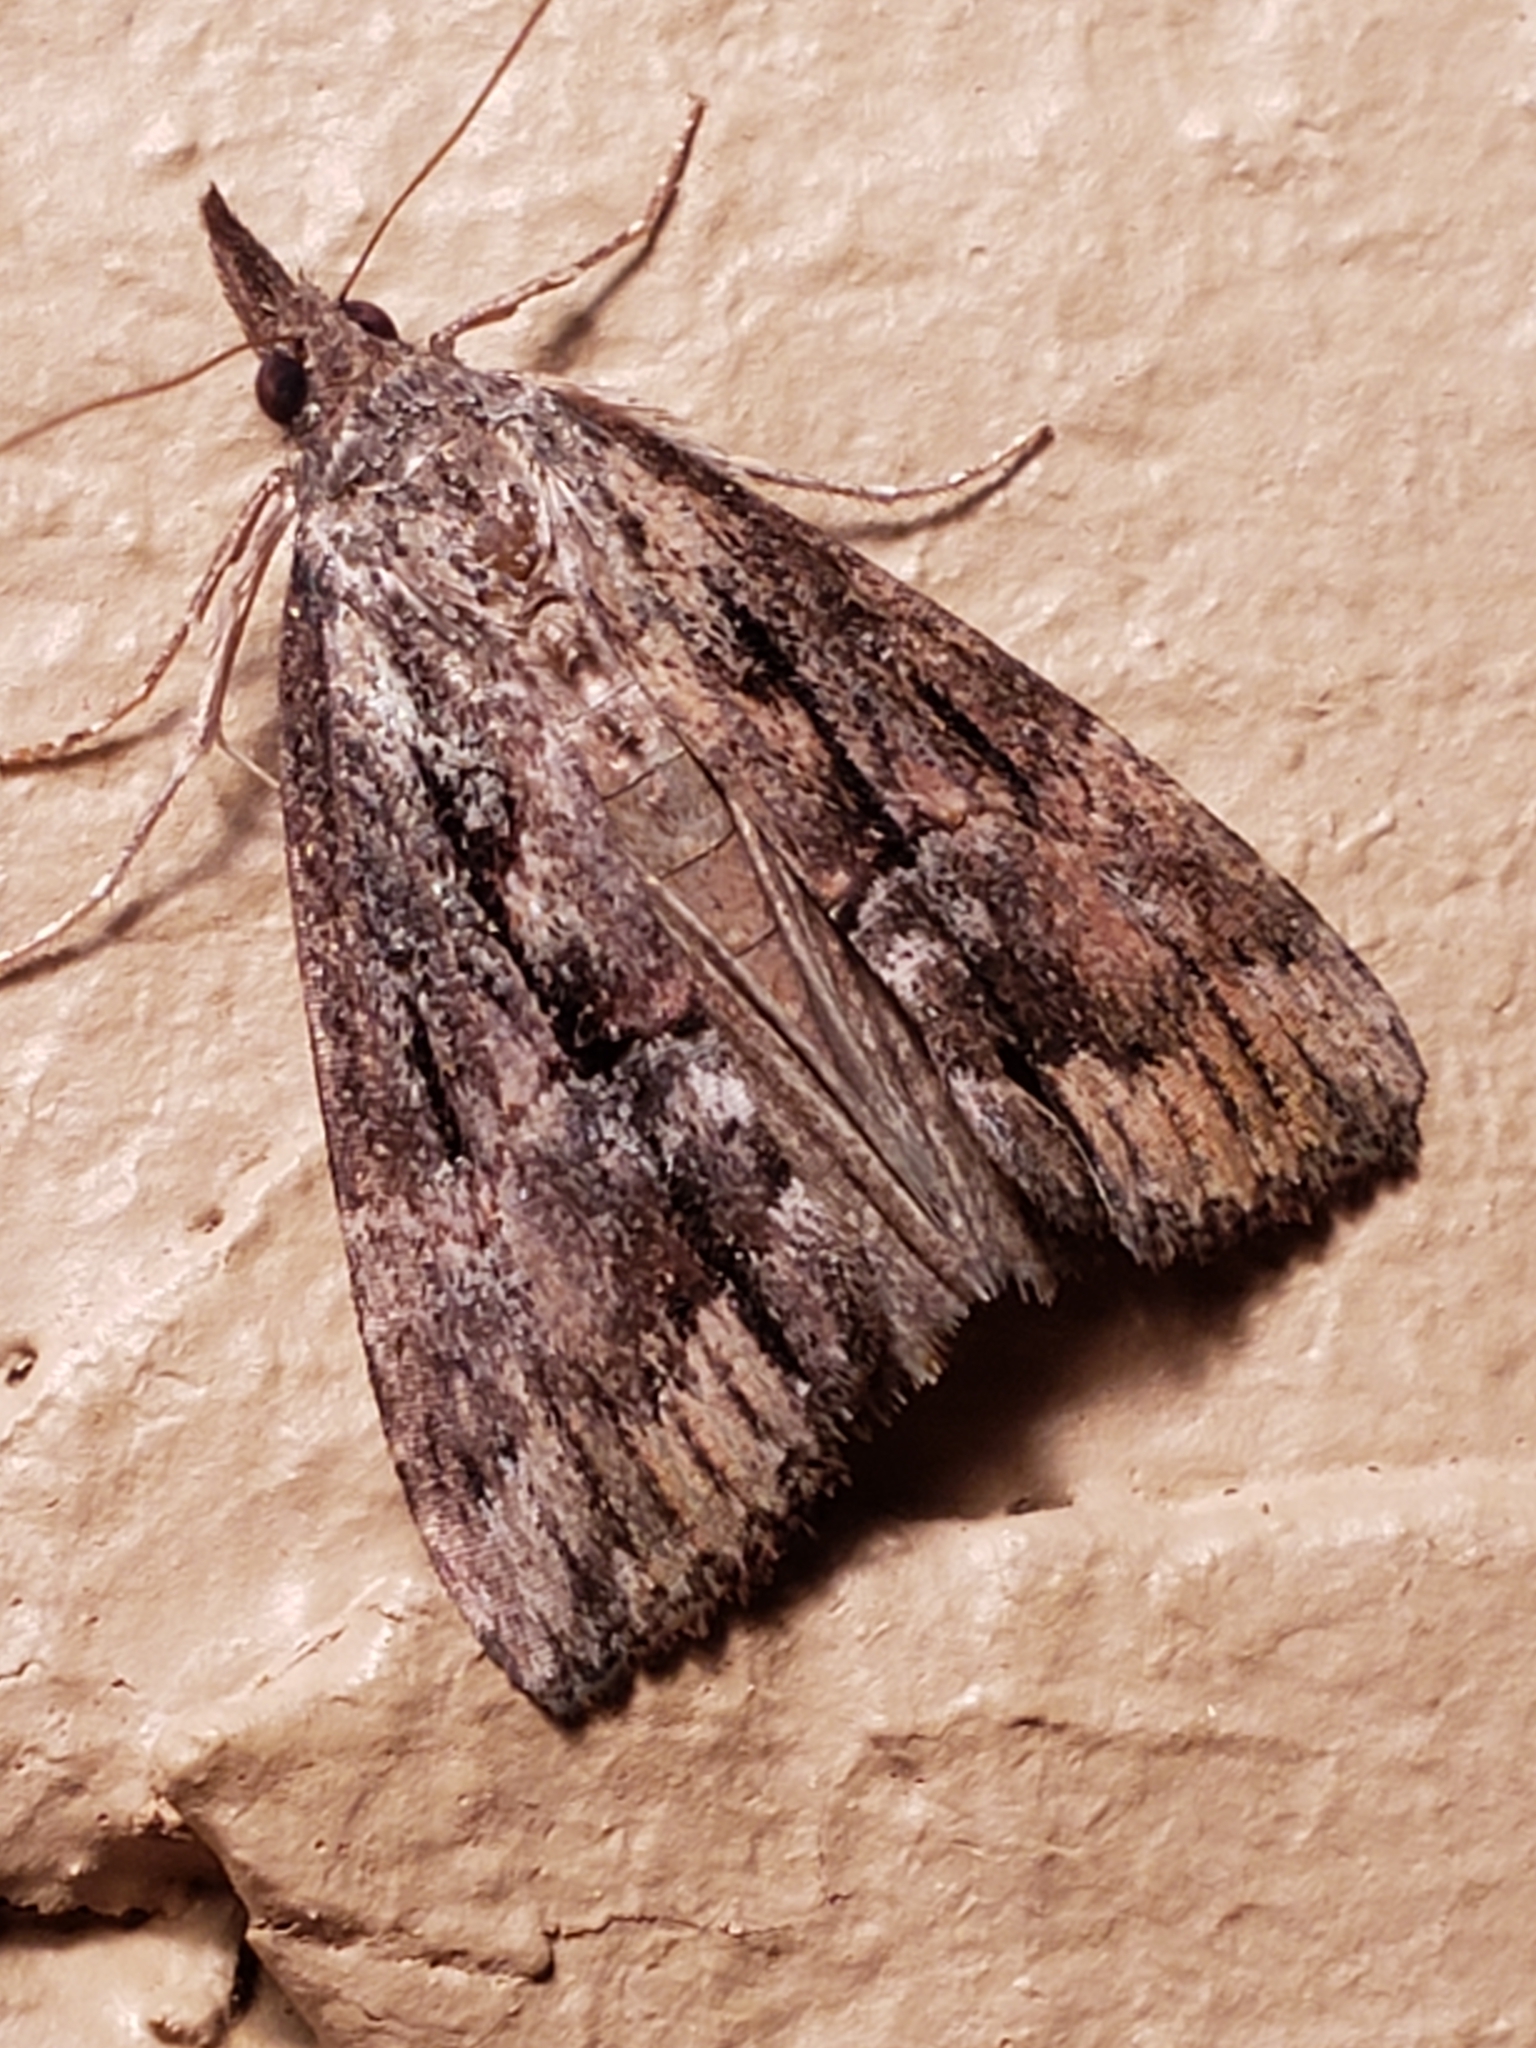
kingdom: Animalia
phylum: Arthropoda
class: Insecta
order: Lepidoptera
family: Erebidae
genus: Hypena
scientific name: Hypena scabra
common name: Green cloverworm
